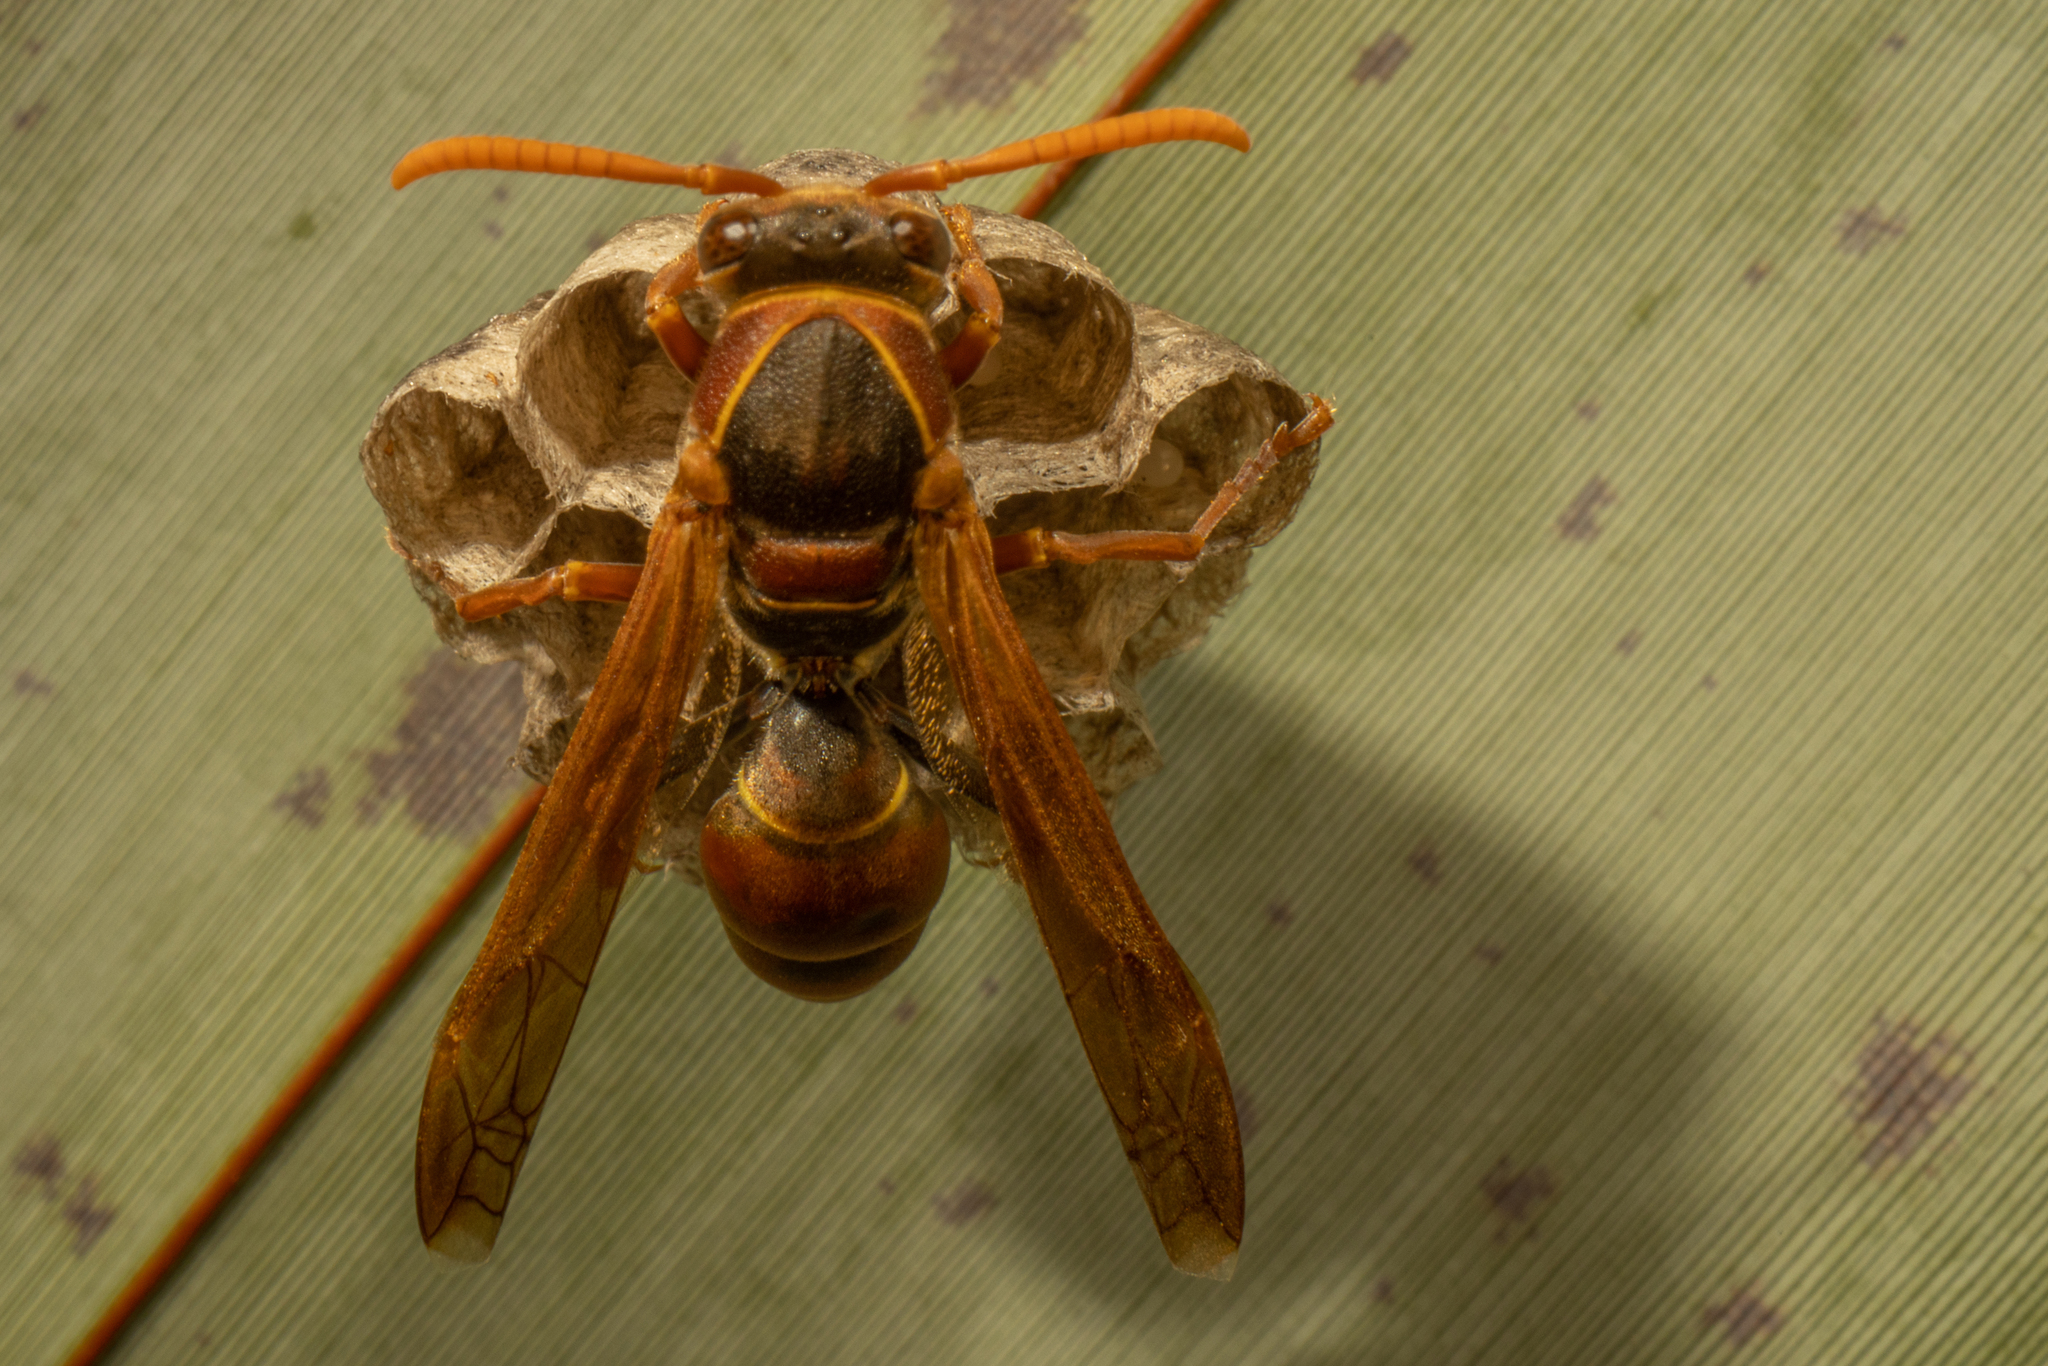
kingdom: Animalia
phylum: Arthropoda
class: Insecta
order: Hymenoptera
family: Eumenidae
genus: Polistes
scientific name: Polistes humilis
